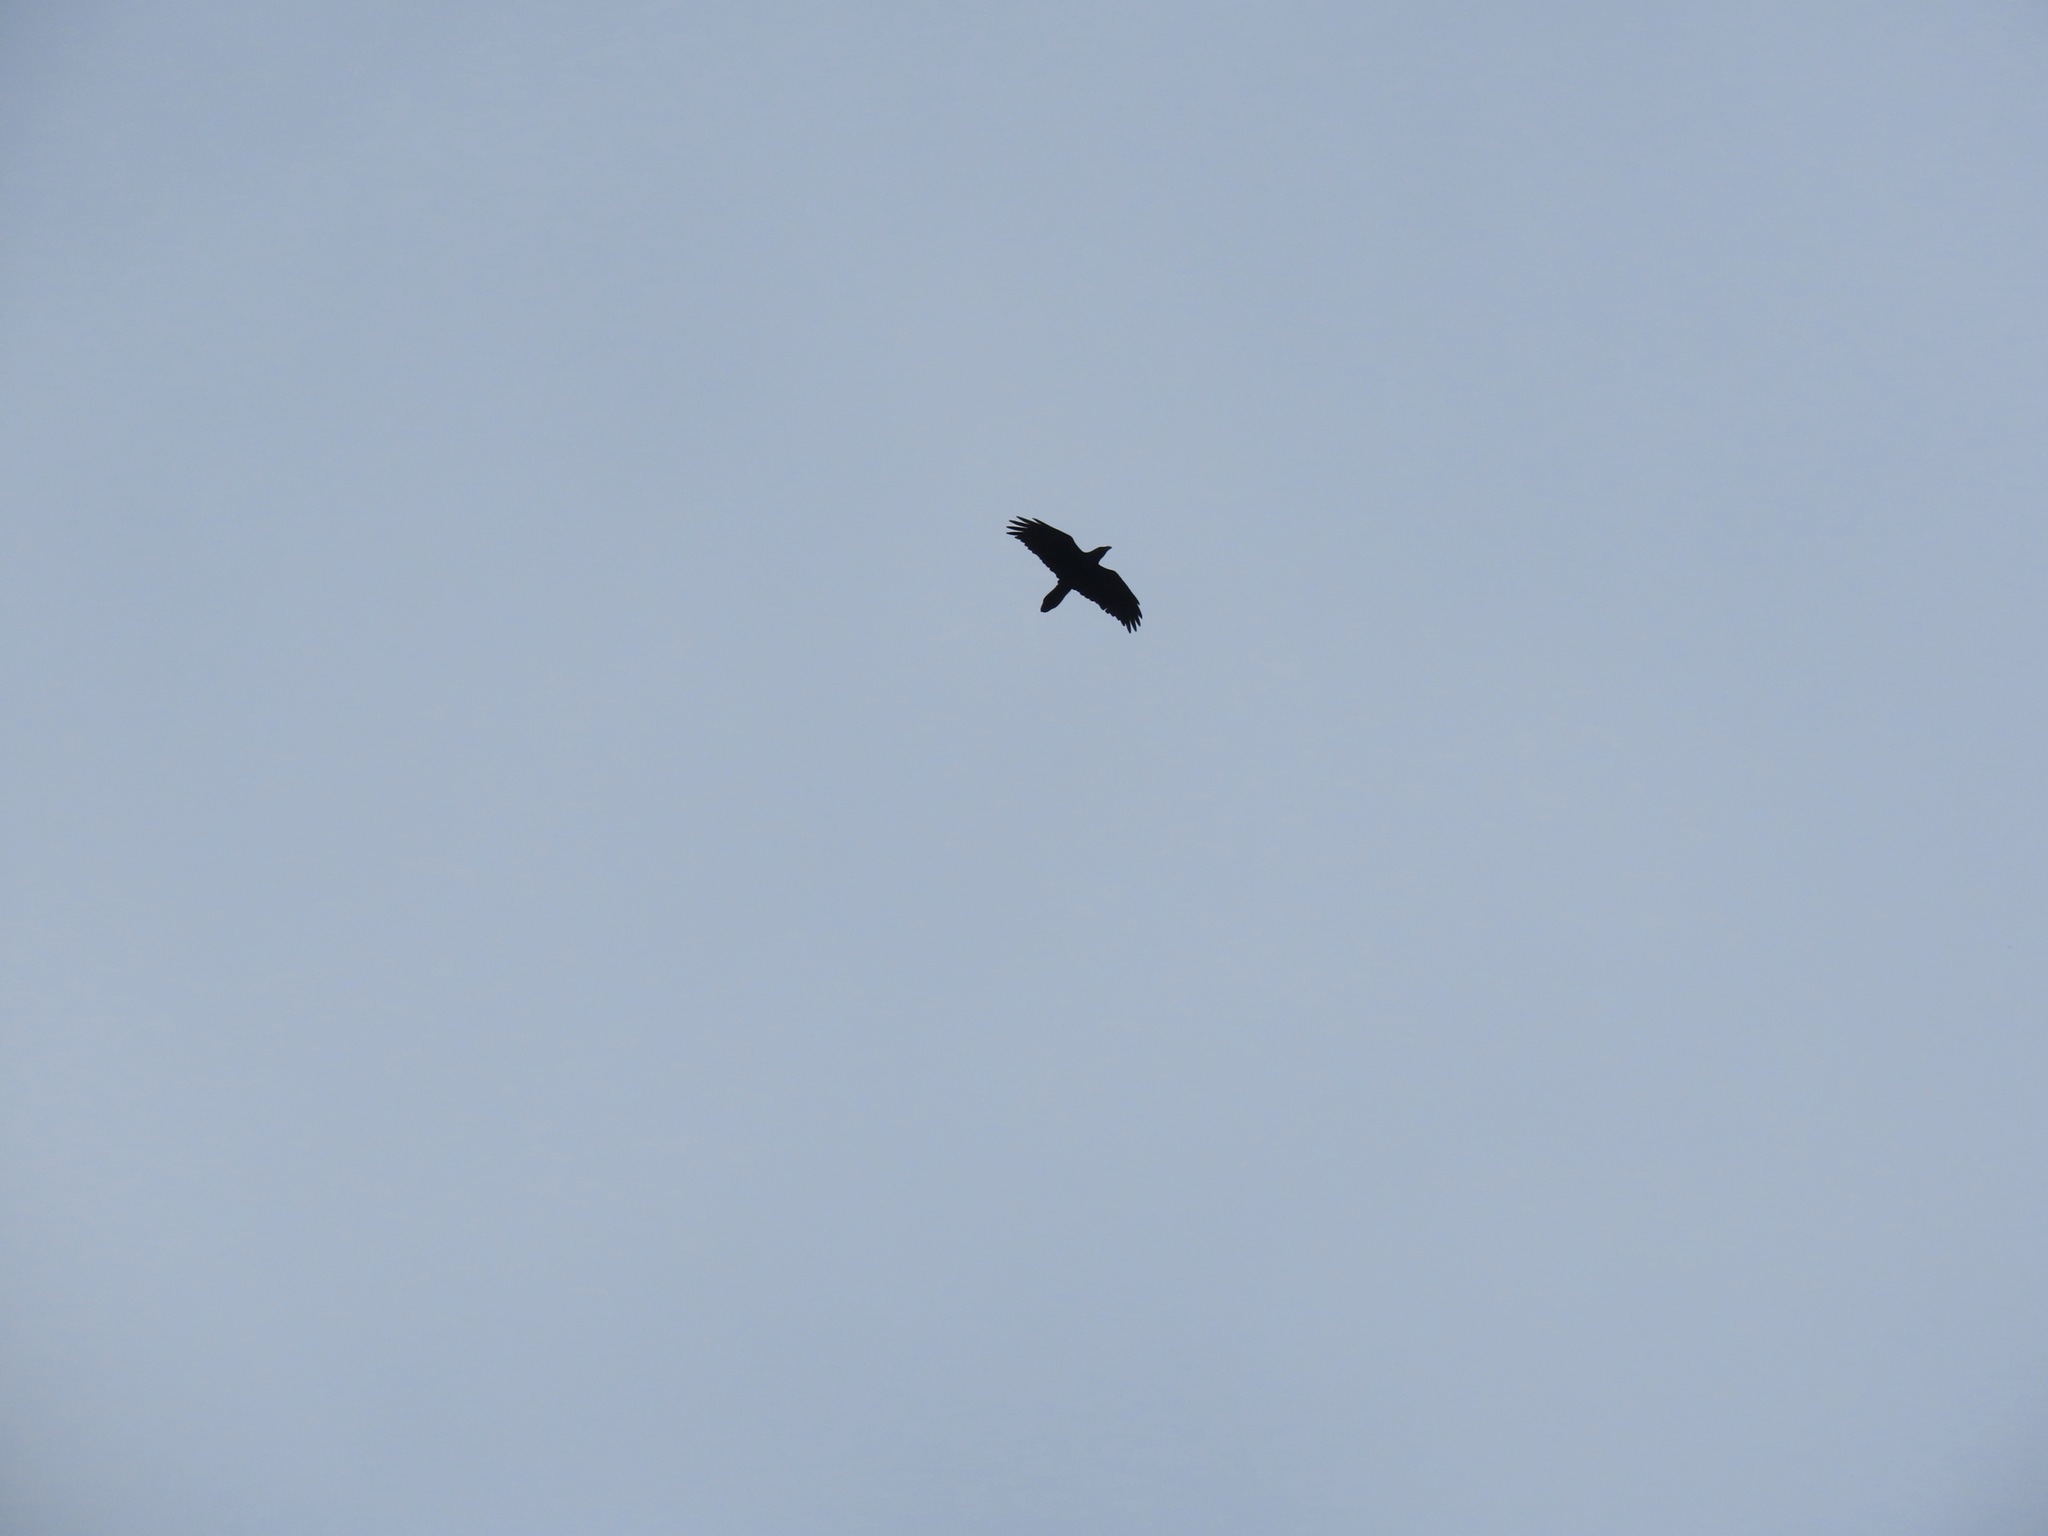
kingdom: Animalia
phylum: Chordata
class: Aves
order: Passeriformes
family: Corvidae
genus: Corvus
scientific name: Corvus corax
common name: Common raven
